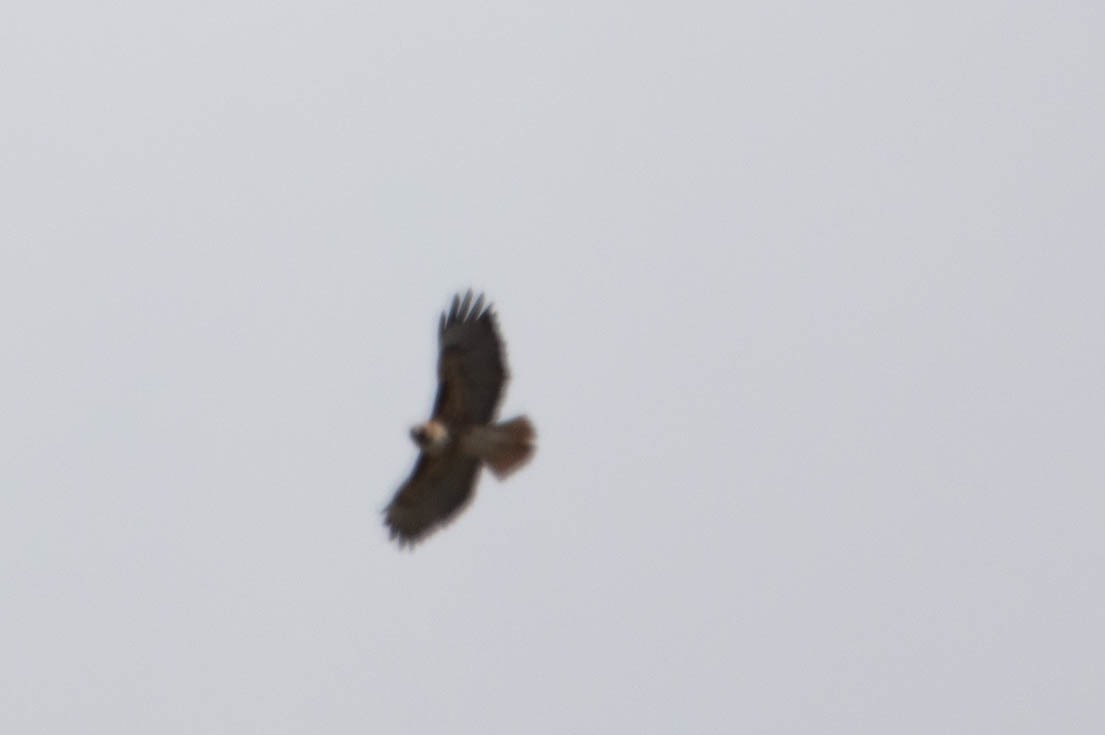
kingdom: Animalia
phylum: Chordata
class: Aves
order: Accipitriformes
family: Accipitridae
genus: Buteo
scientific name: Buteo jamaicensis
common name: Red-tailed hawk
